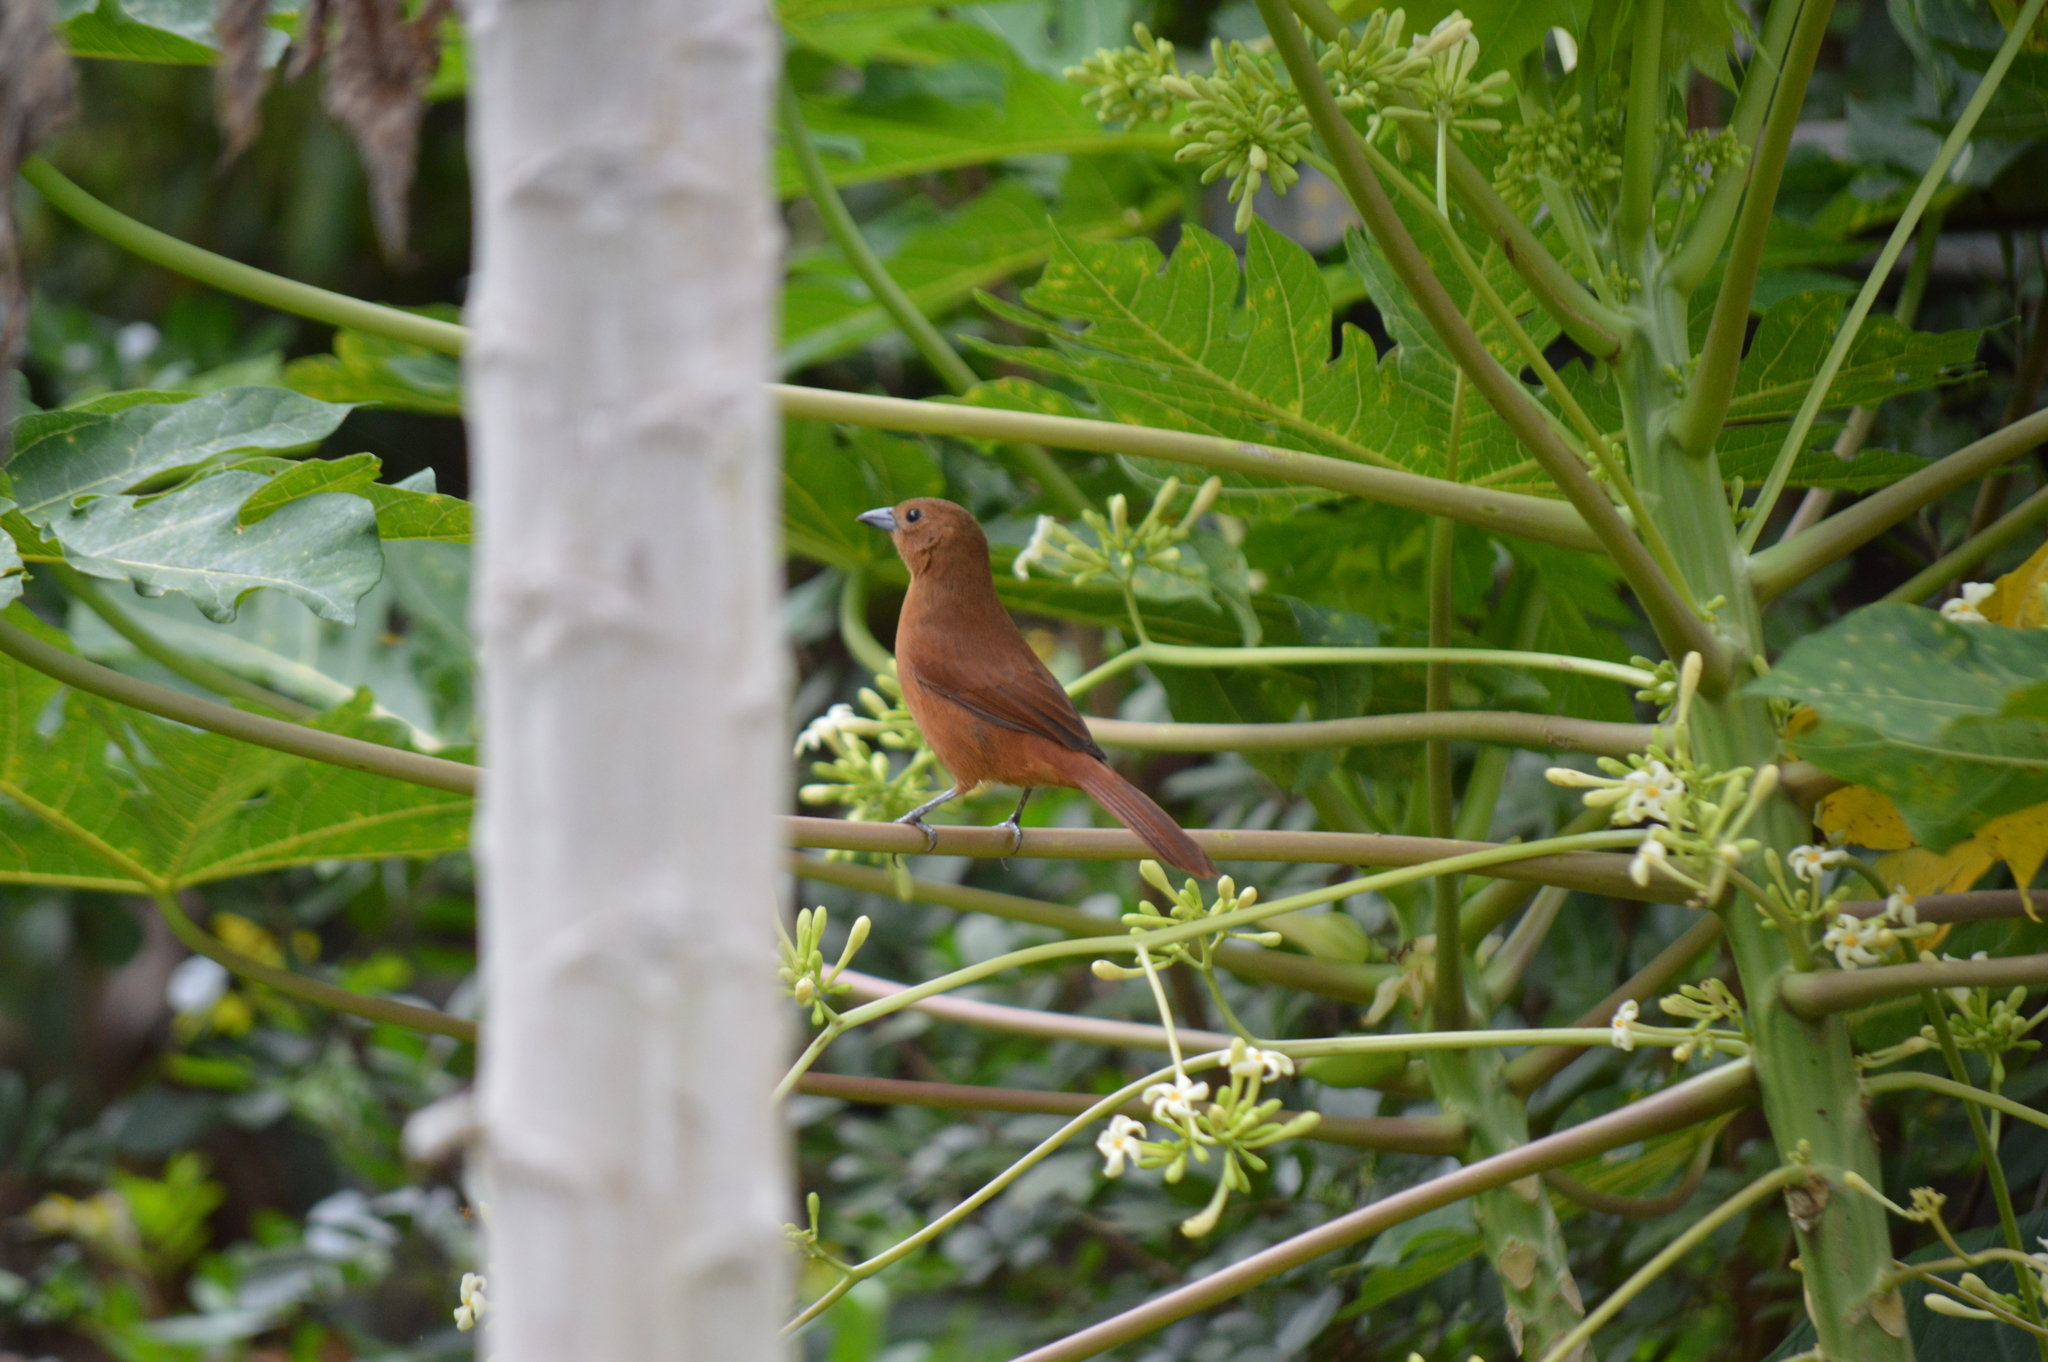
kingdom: Animalia
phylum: Chordata
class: Aves
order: Passeriformes
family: Thraupidae
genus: Tachyphonus
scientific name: Tachyphonus rufus
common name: White-lined tanager
